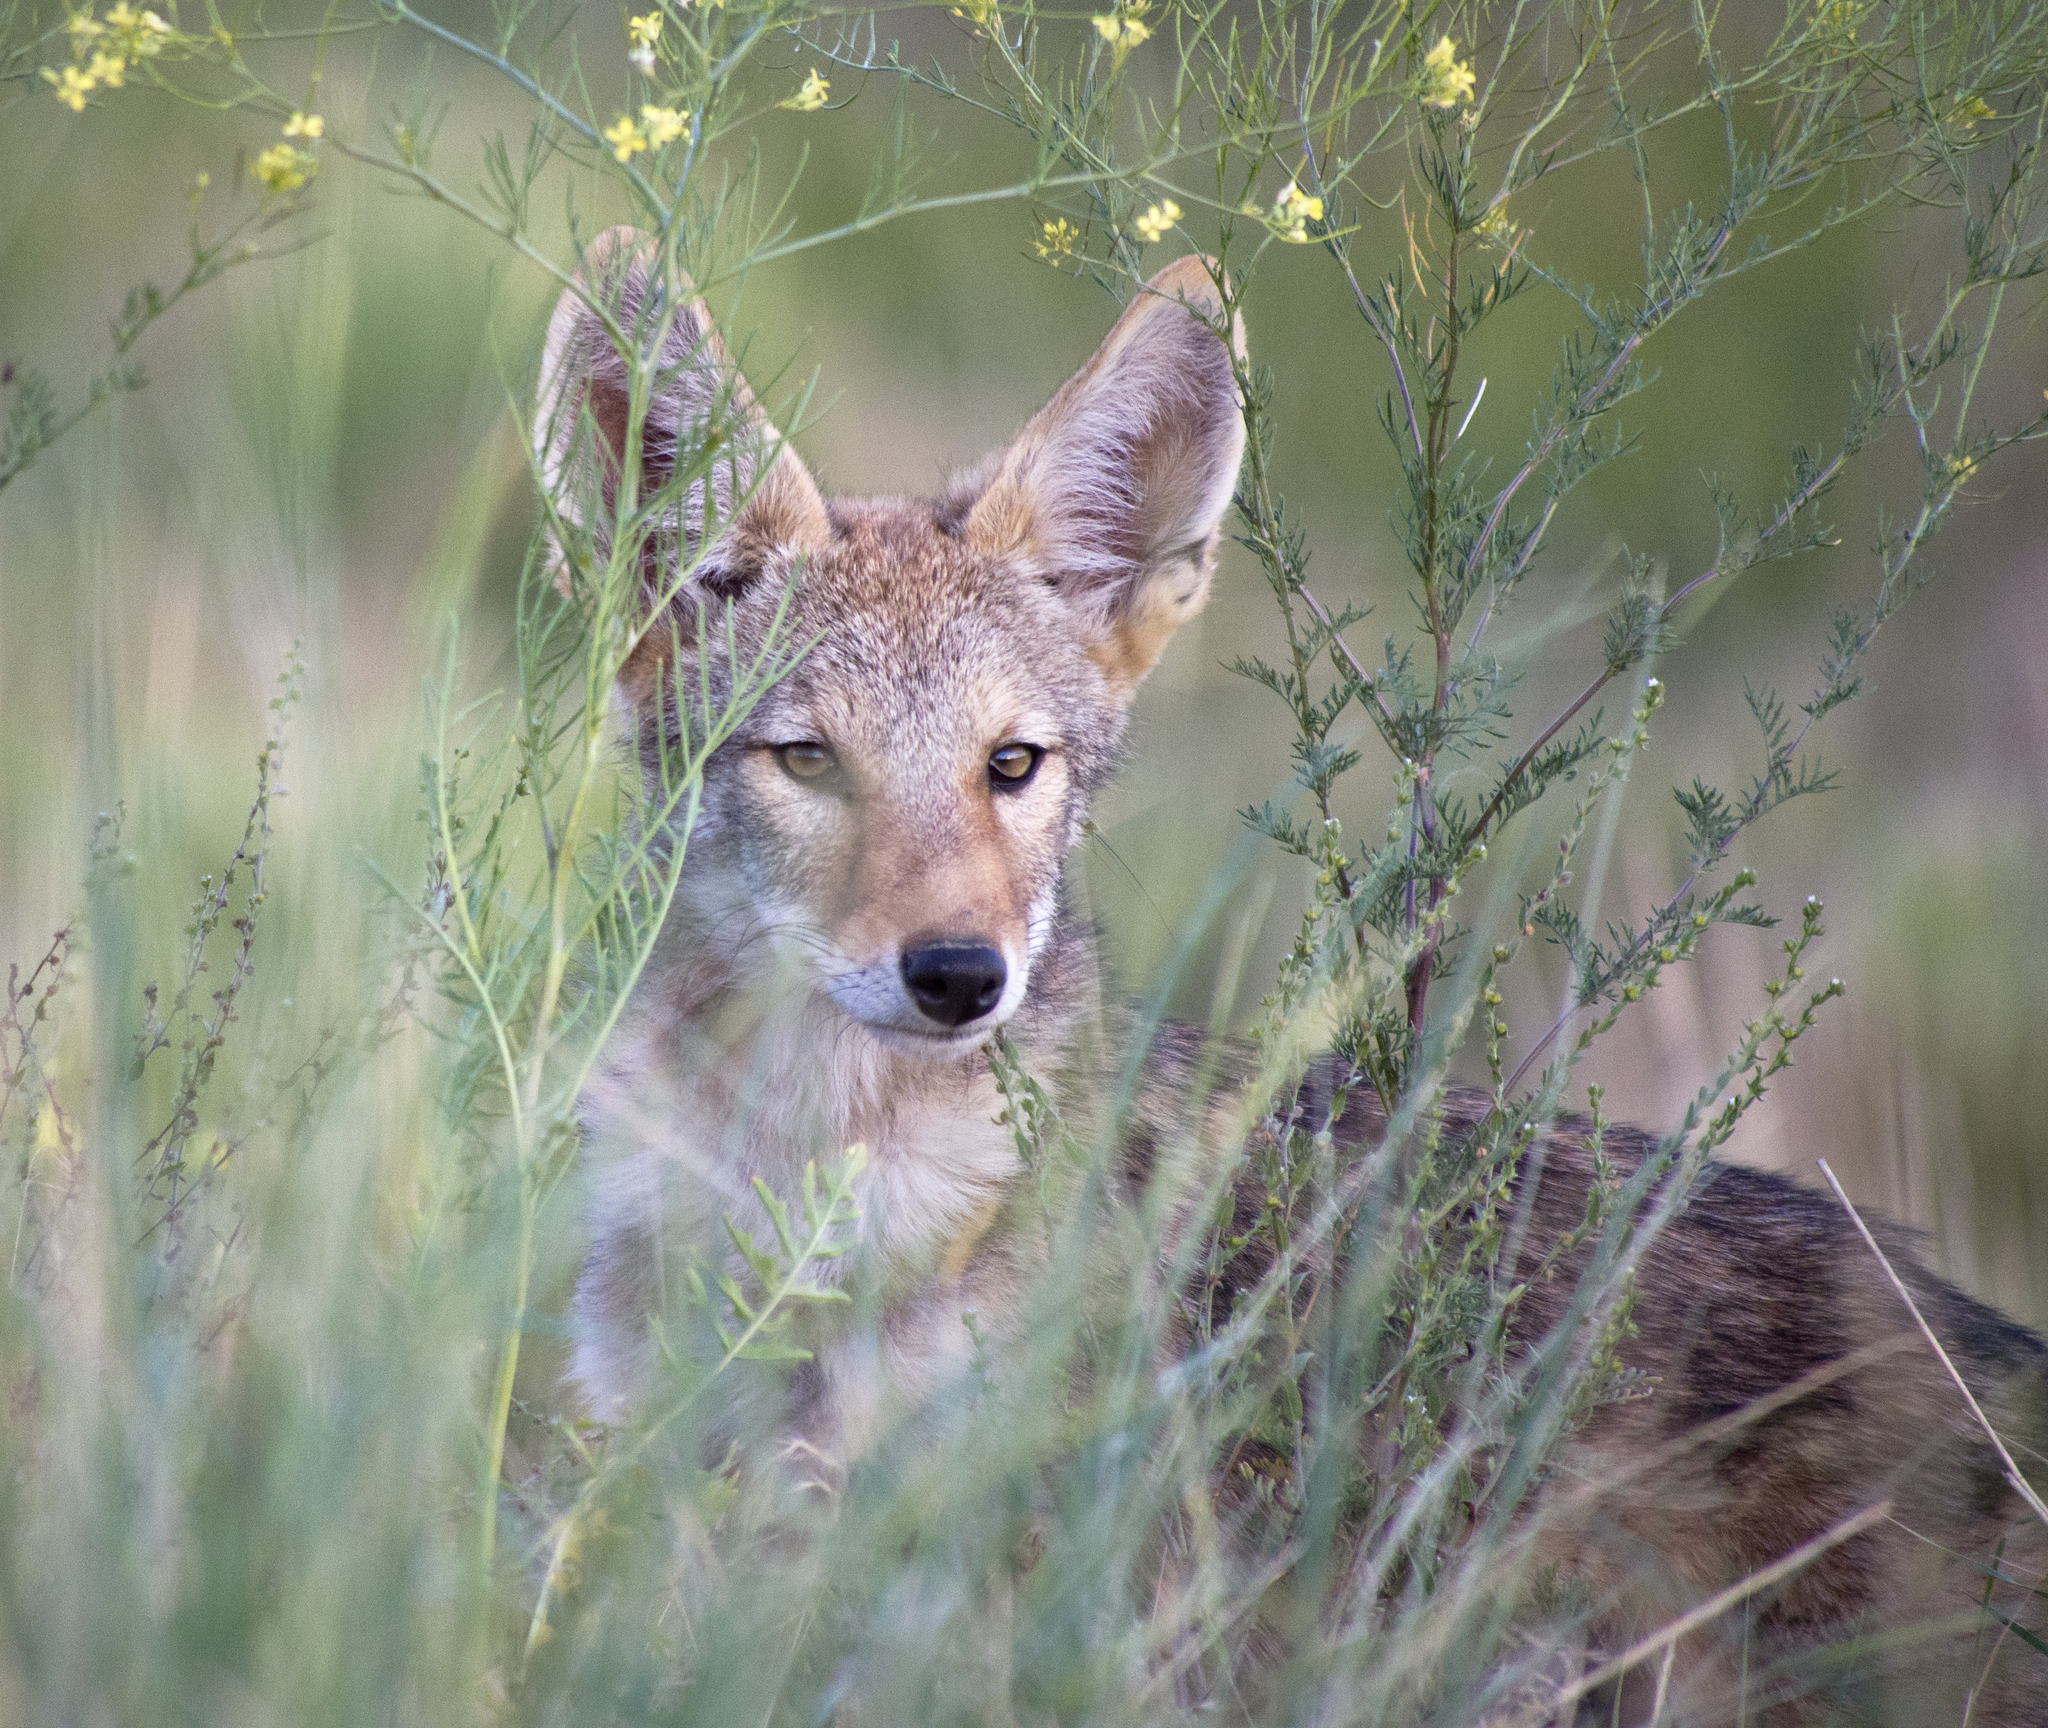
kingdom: Animalia
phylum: Chordata
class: Mammalia
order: Carnivora
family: Canidae
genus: Canis
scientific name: Canis latrans
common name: Coyote
